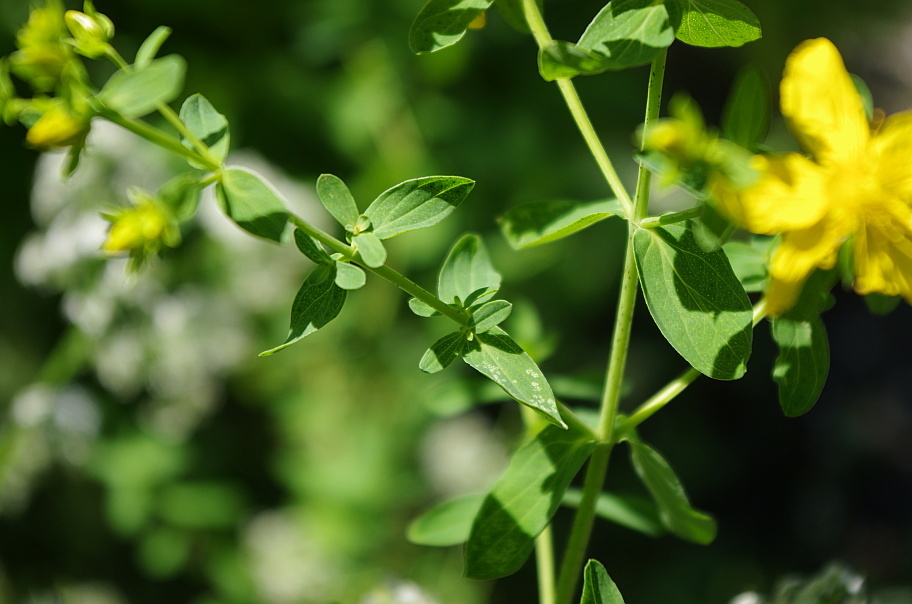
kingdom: Plantae
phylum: Tracheophyta
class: Magnoliopsida
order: Malpighiales
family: Hypericaceae
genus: Hypericum
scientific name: Hypericum perforatum
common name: Common st. johnswort
